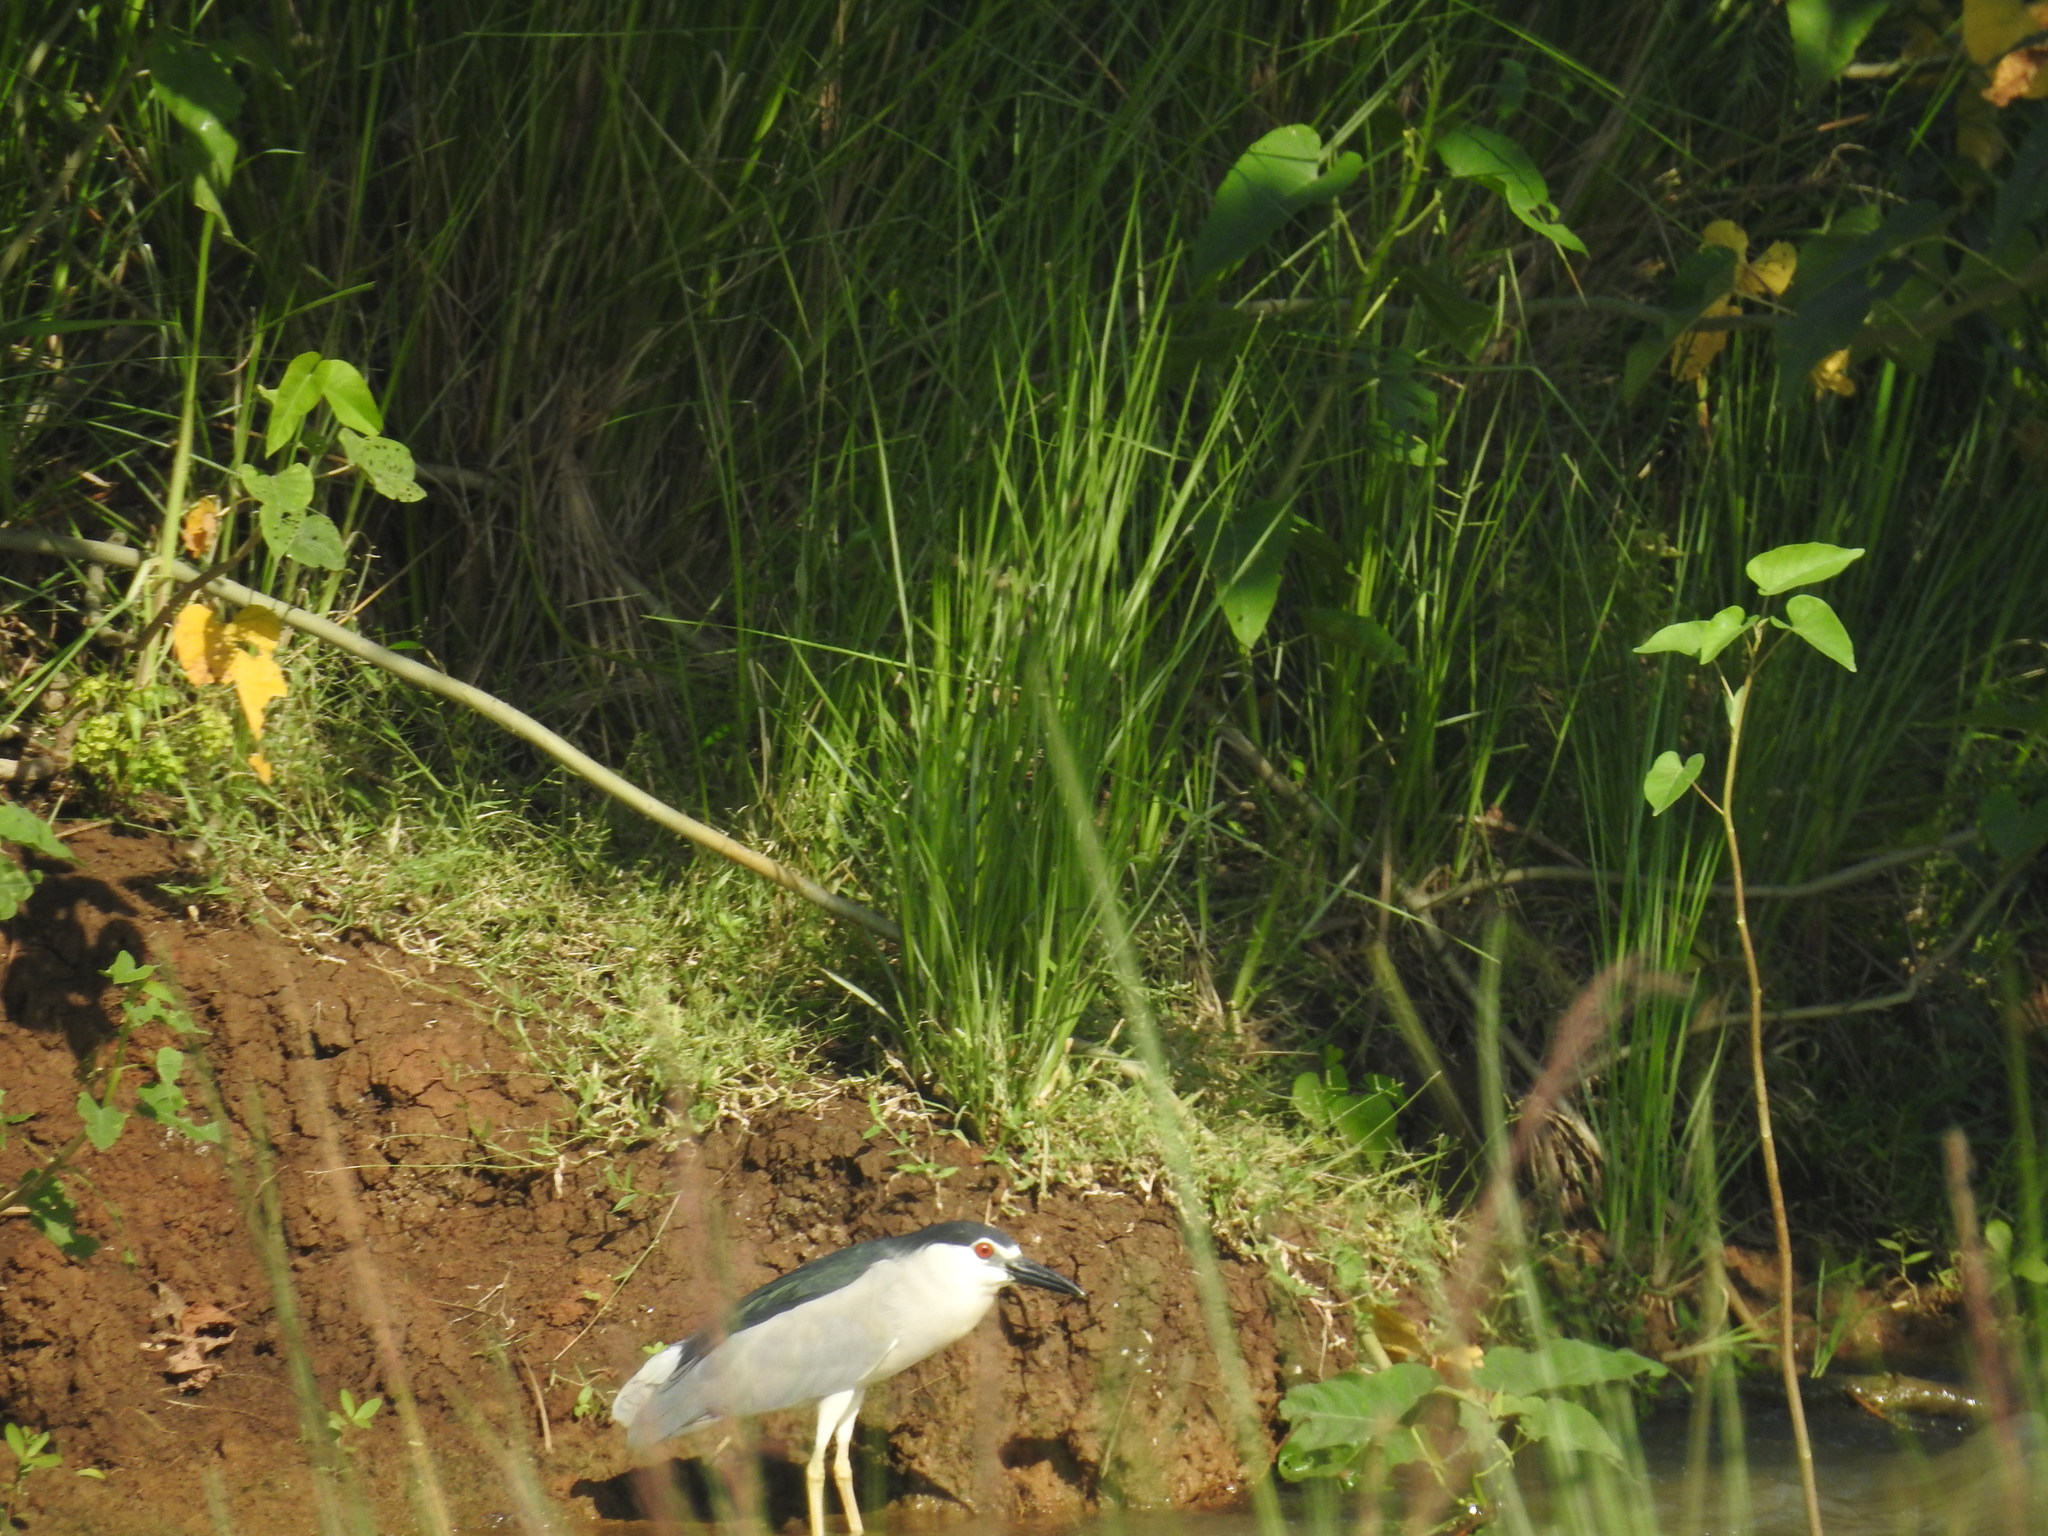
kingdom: Animalia
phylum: Chordata
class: Aves
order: Pelecaniformes
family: Ardeidae
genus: Nycticorax
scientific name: Nycticorax nycticorax
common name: Black-crowned night heron
